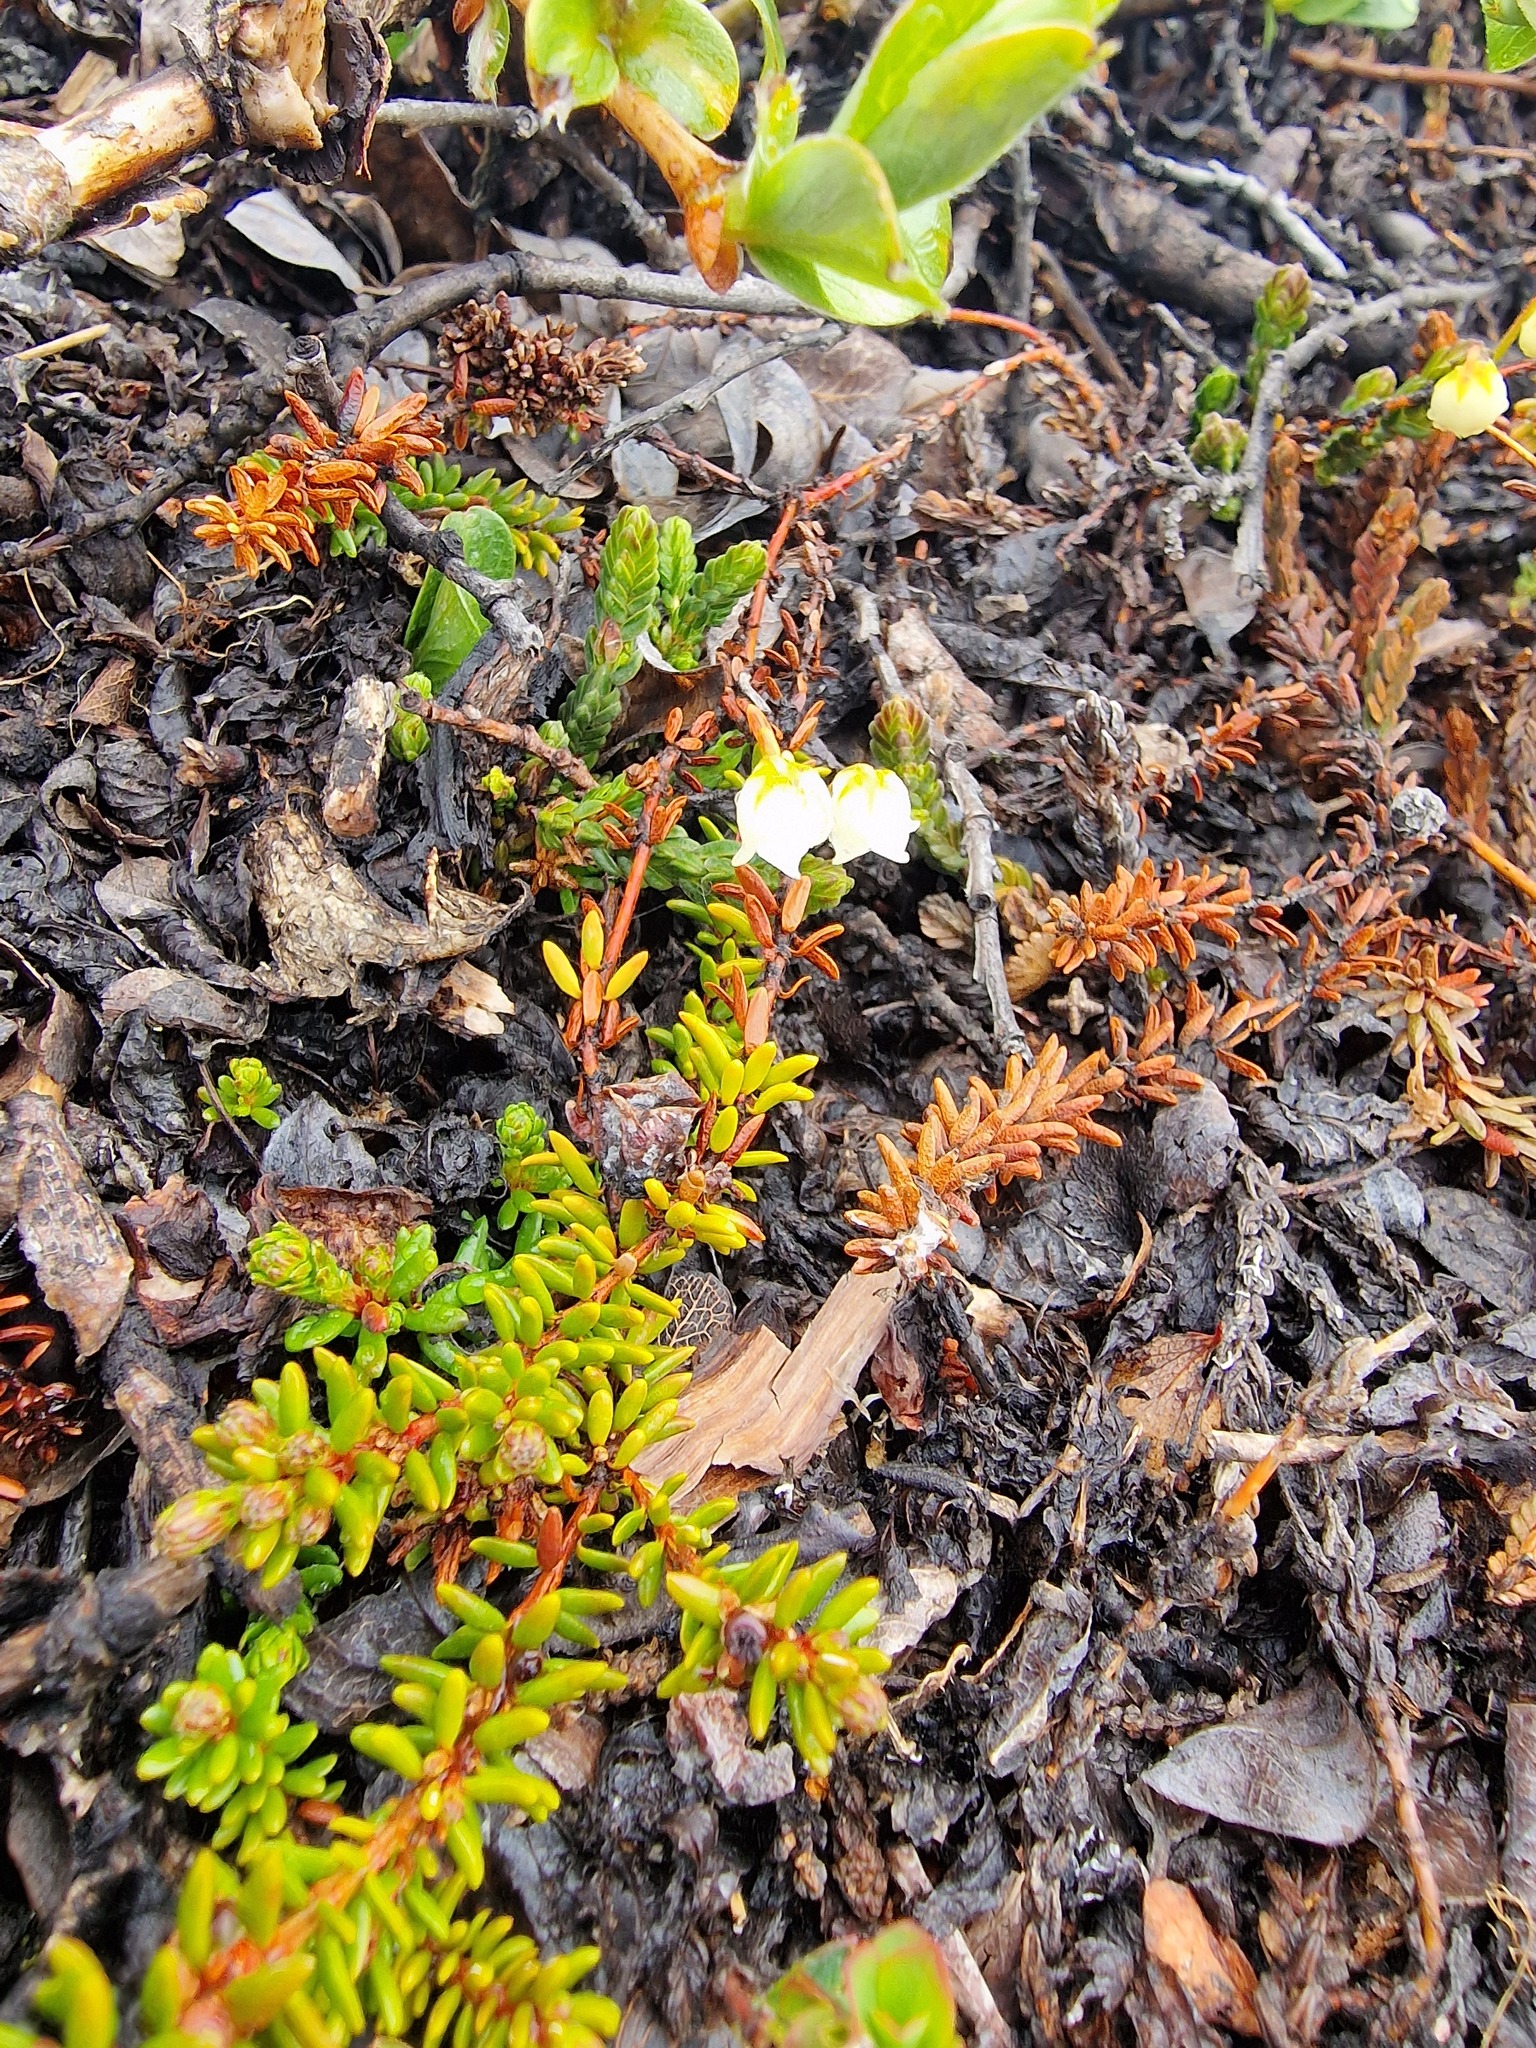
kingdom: Plantae
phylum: Tracheophyta
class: Magnoliopsida
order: Ericales
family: Ericaceae
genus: Cassiope
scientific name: Cassiope tetragona
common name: Arctic bell heather
